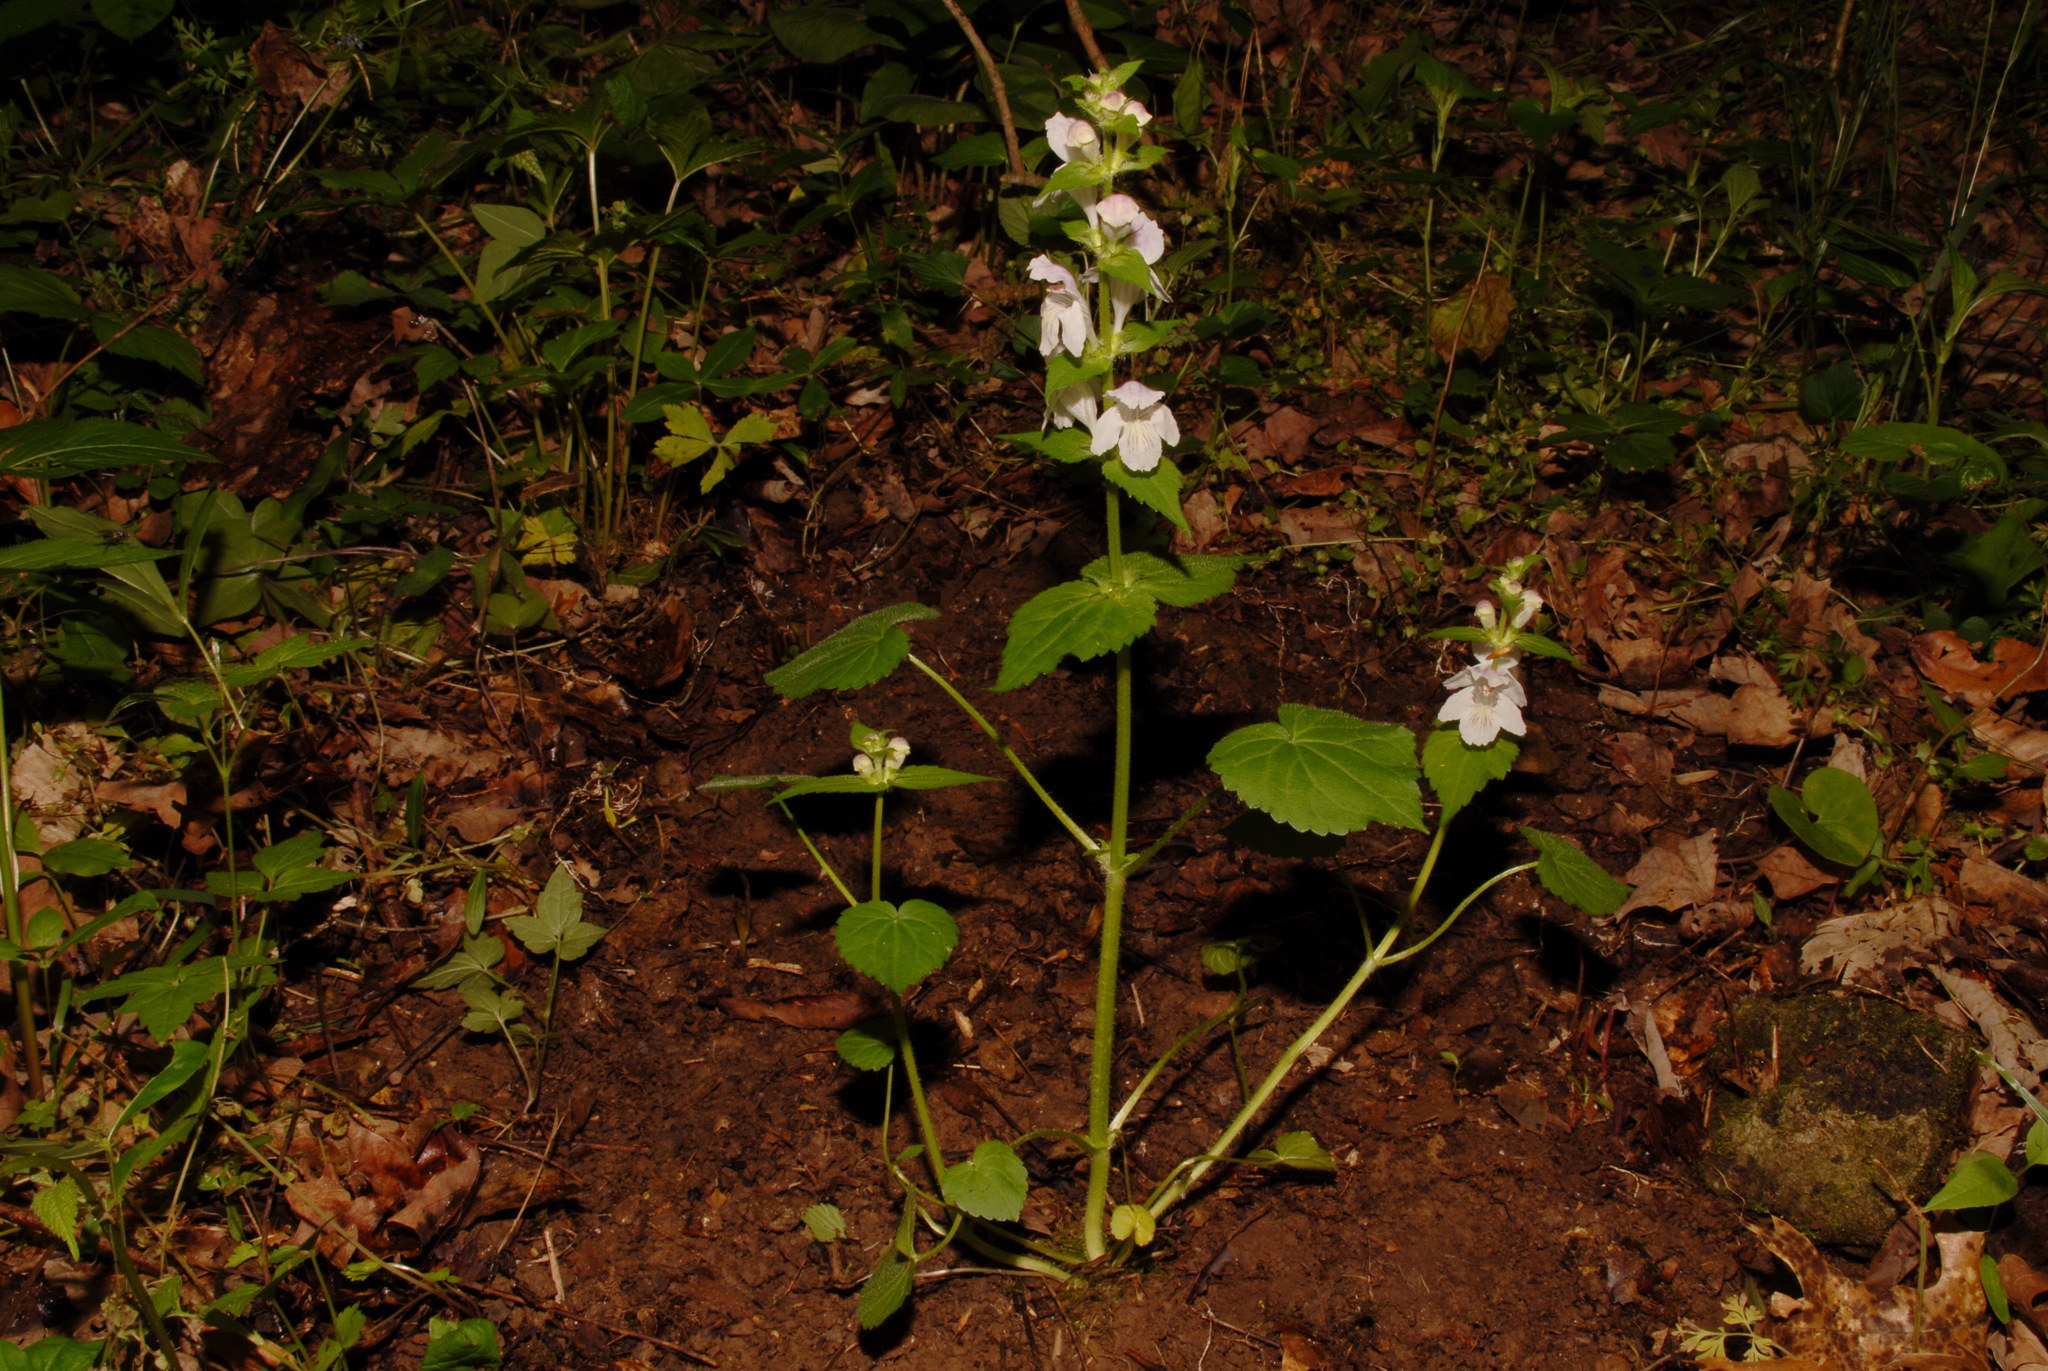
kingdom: Plantae
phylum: Tracheophyta
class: Magnoliopsida
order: Lamiales
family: Lamiaceae
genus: Synandra
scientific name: Synandra hispidula
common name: Synandra
